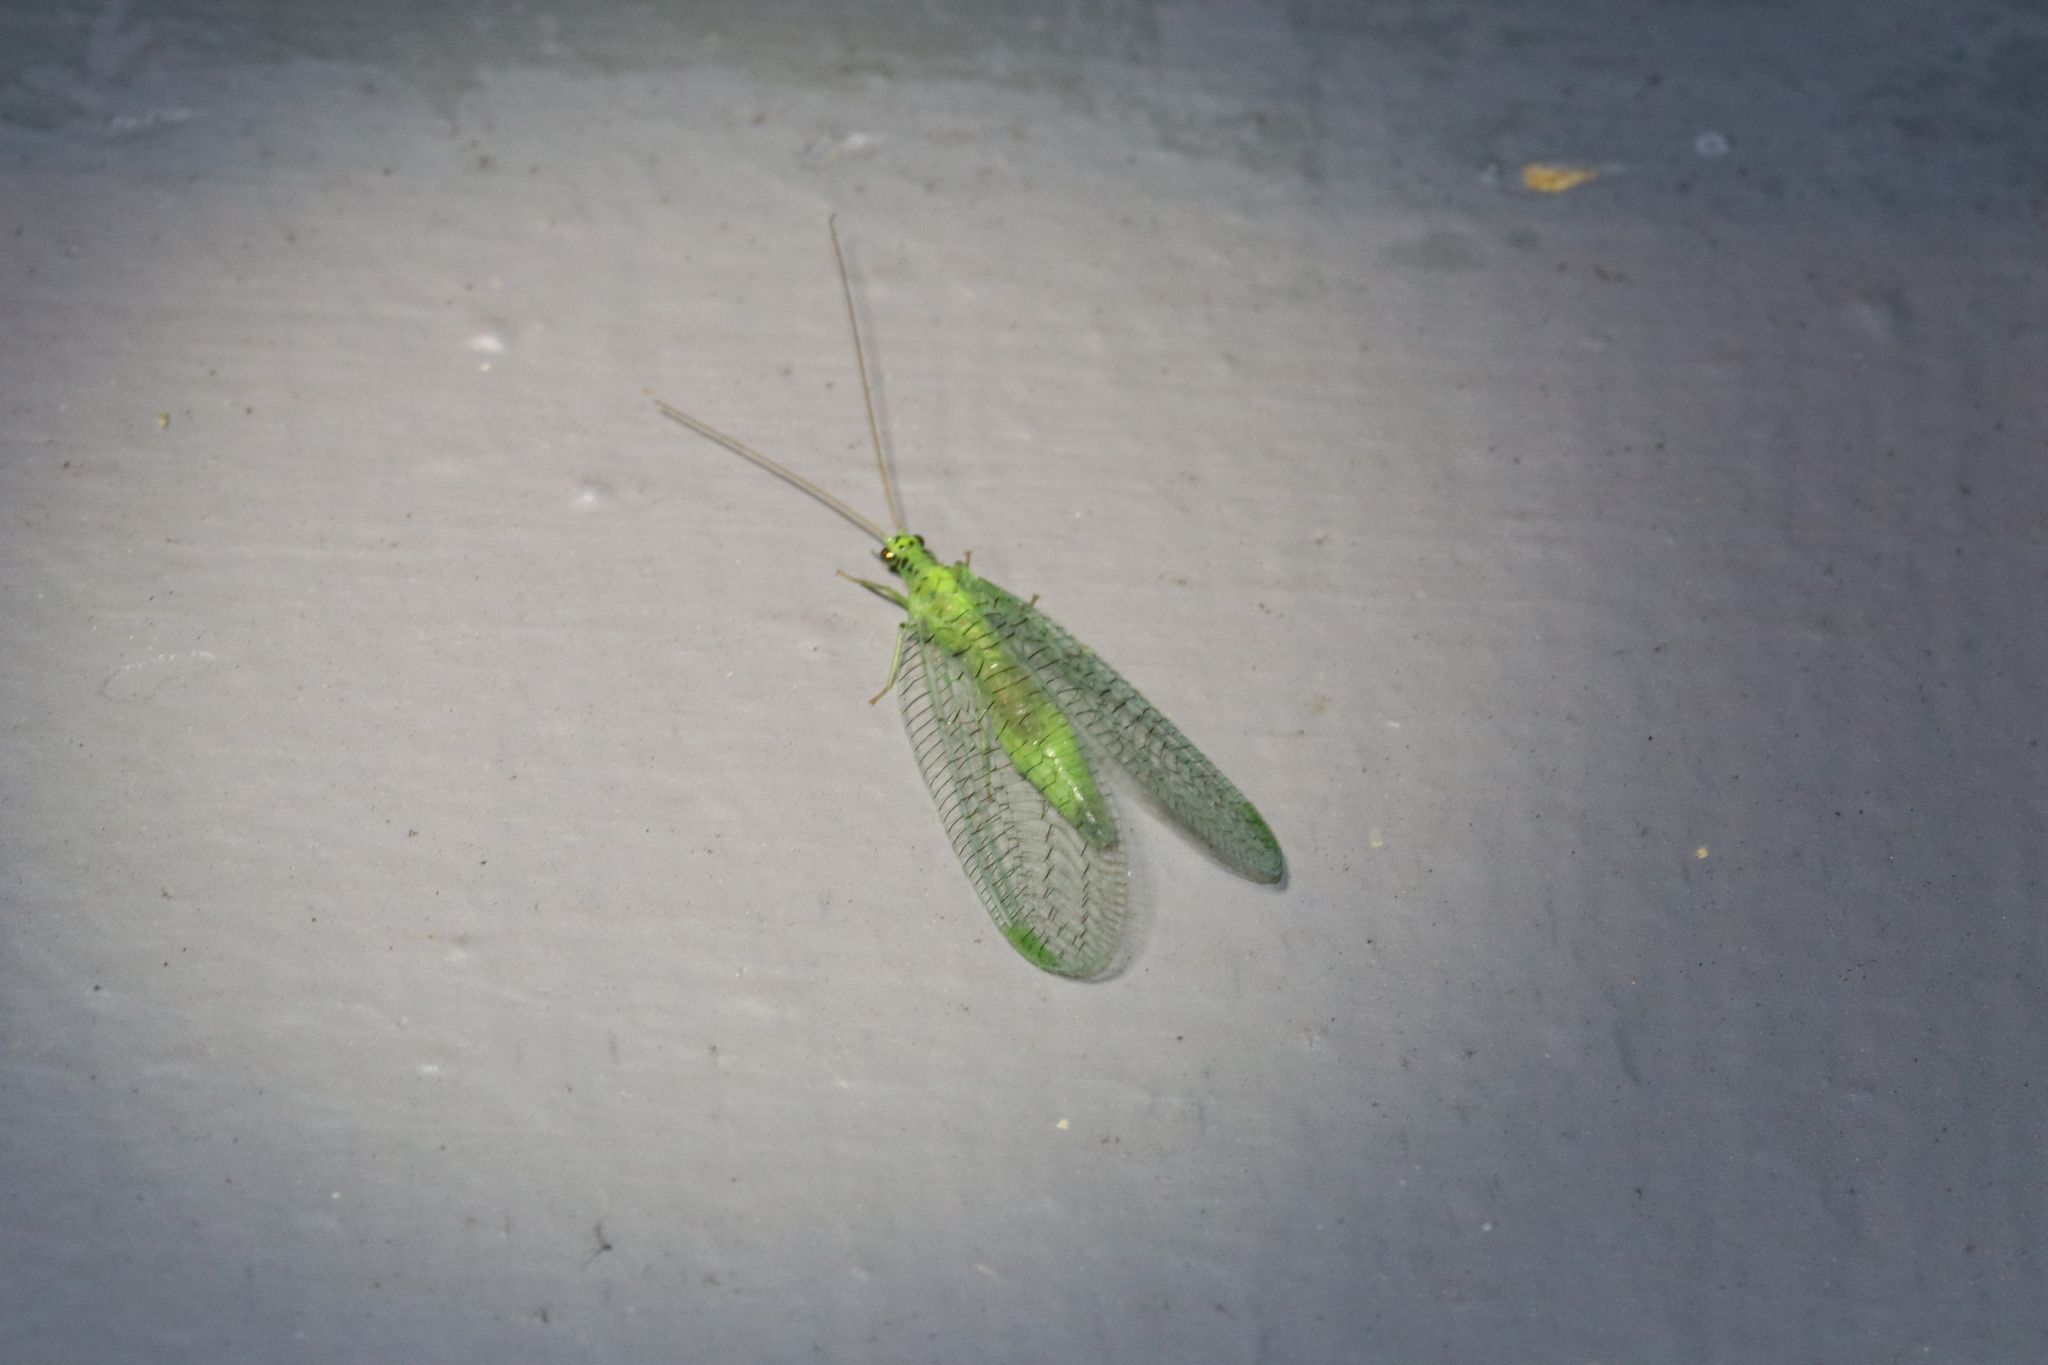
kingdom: Animalia
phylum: Arthropoda
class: Insecta
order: Neuroptera
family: Chrysopidae
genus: Chrysopa
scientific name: Chrysopa chi
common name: X-marked green lacewing
